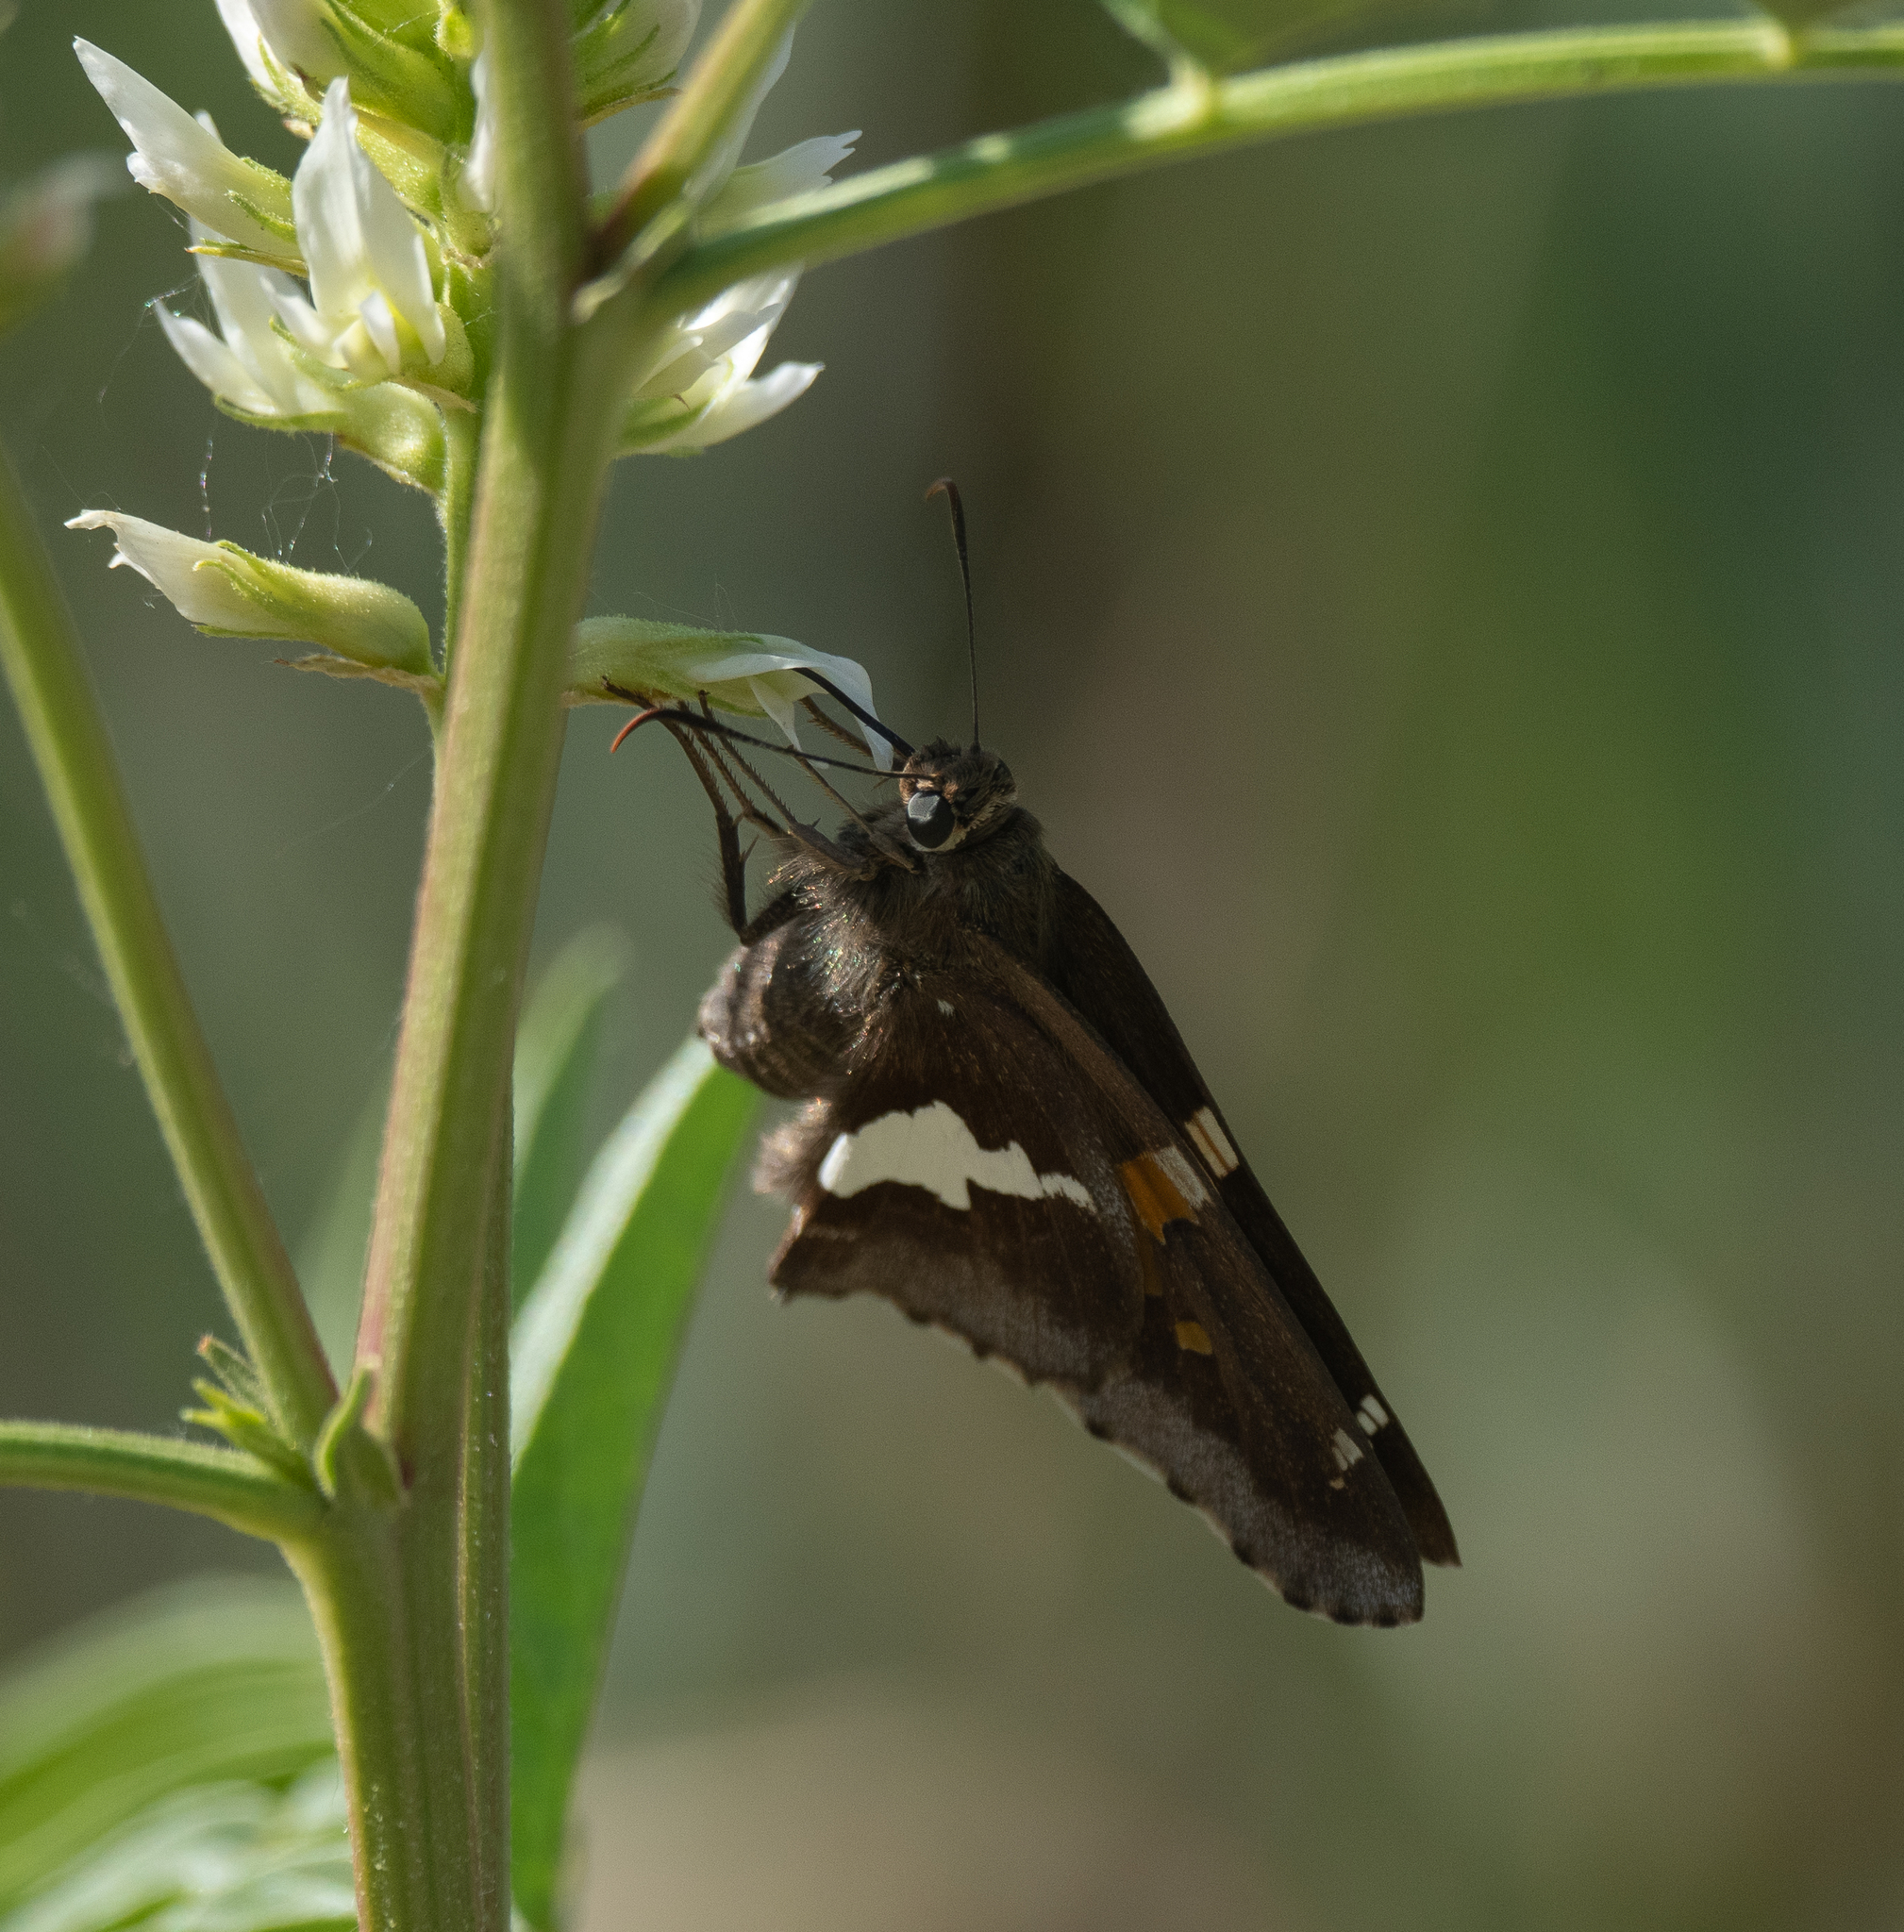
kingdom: Animalia
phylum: Arthropoda
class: Insecta
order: Lepidoptera
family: Hesperiidae
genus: Epargyreus
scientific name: Epargyreus clarus
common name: Silver-spotted skipper
